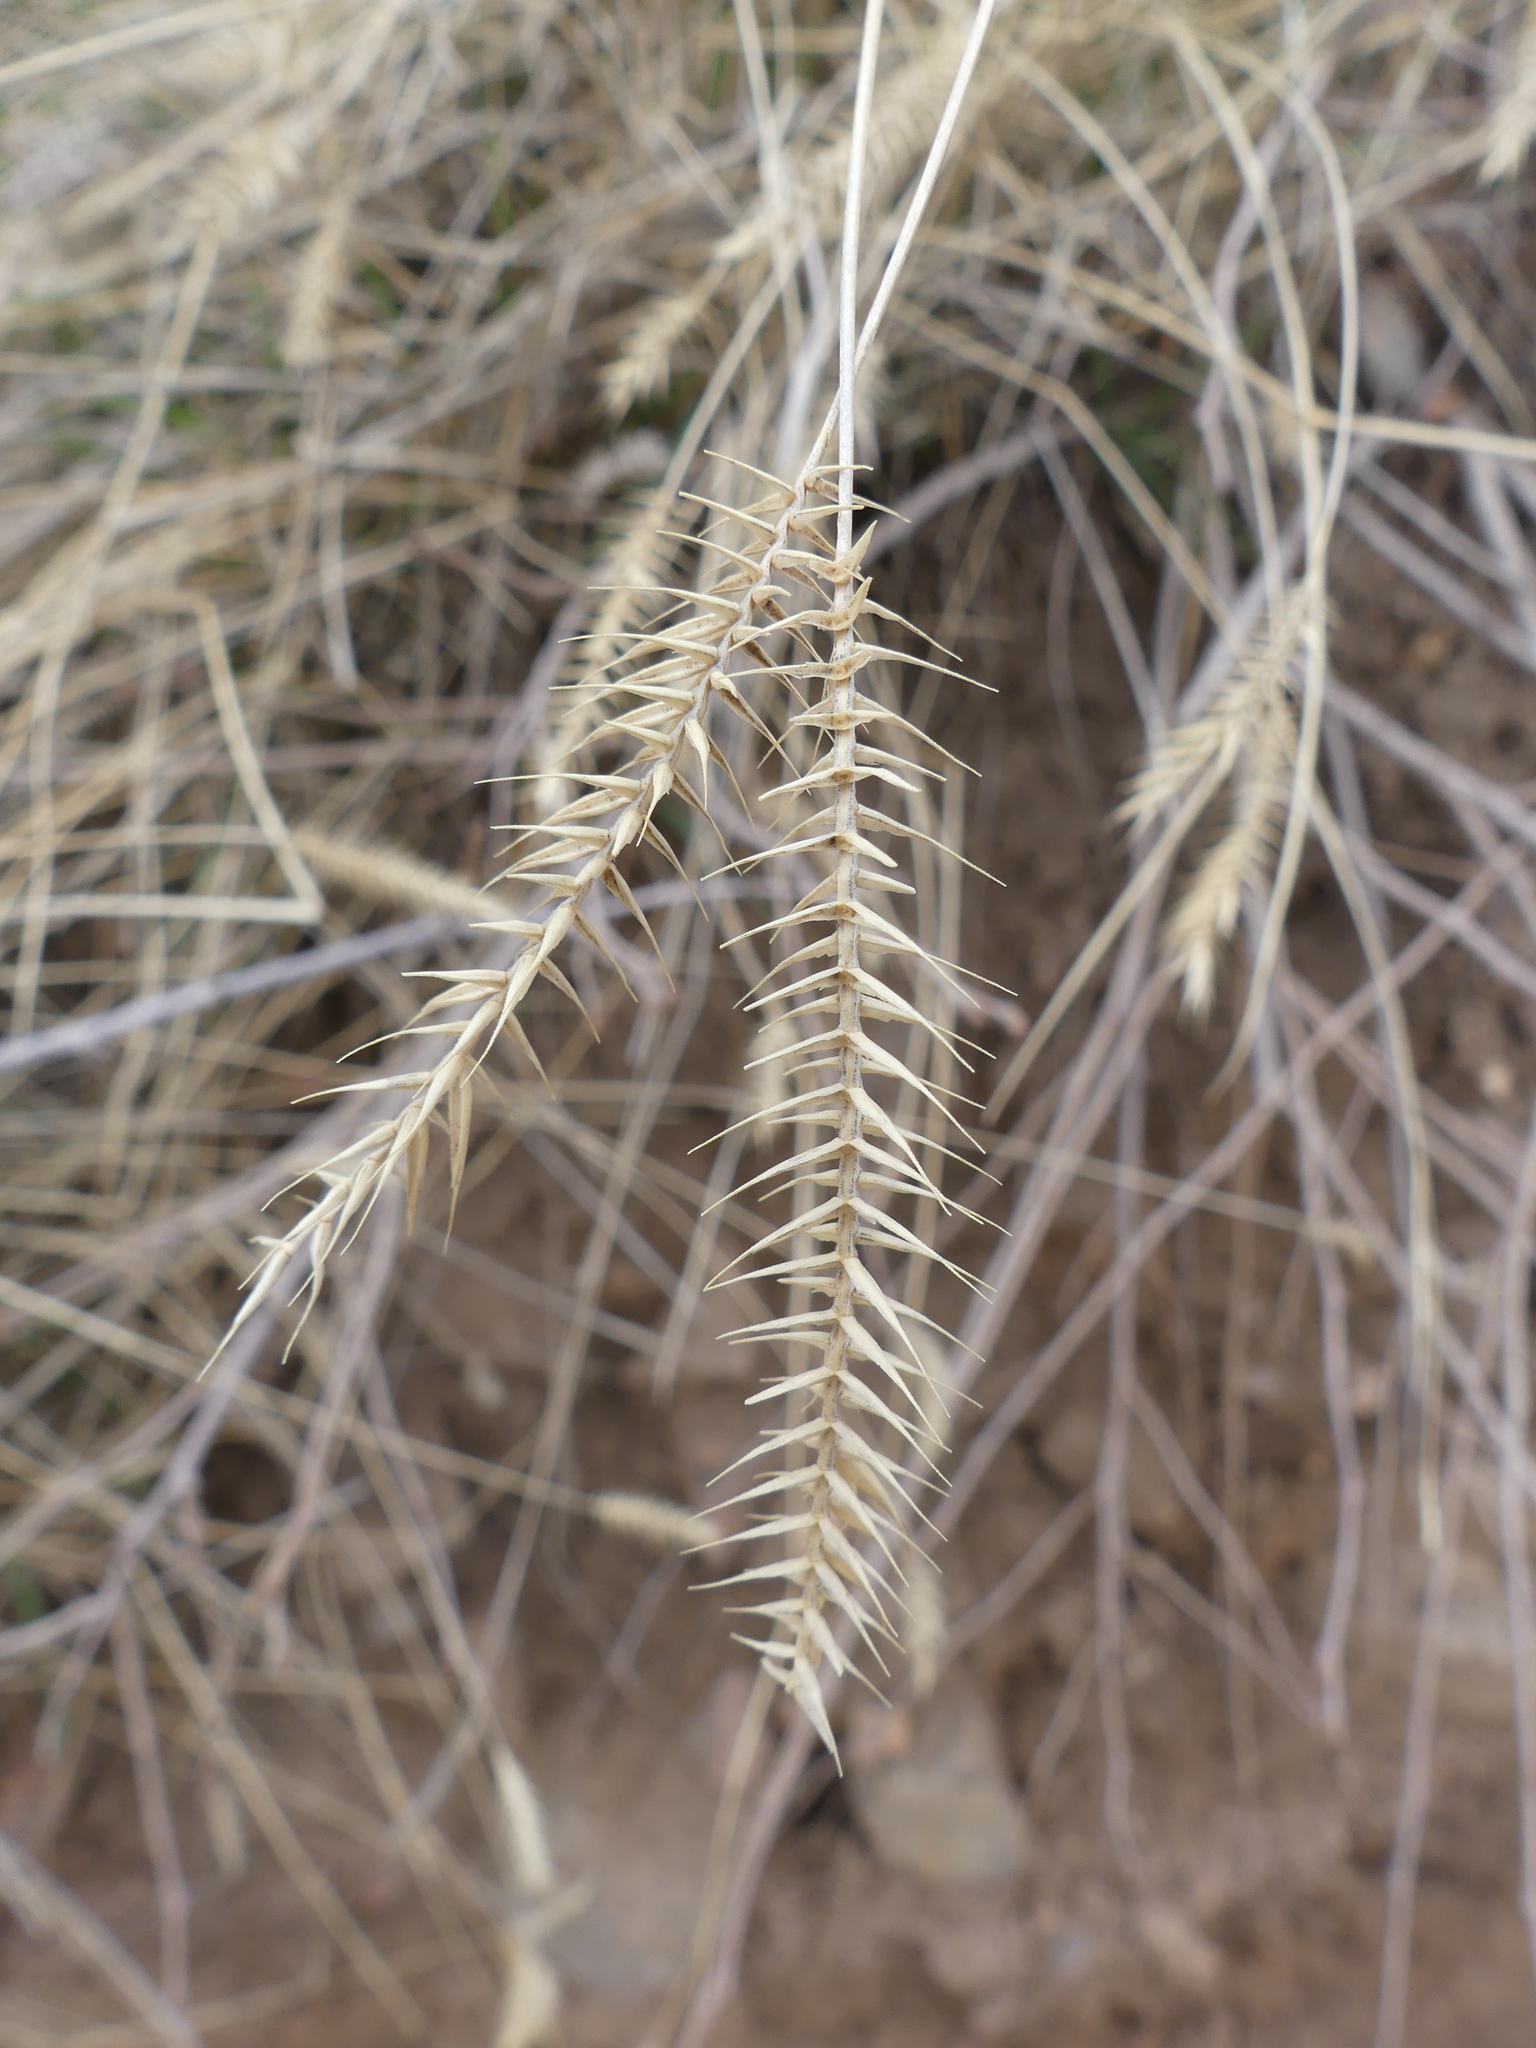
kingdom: Plantae
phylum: Tracheophyta
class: Liliopsida
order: Poales
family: Poaceae
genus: Agropyron
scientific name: Agropyron cristatum
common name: Crested wheatgrass
